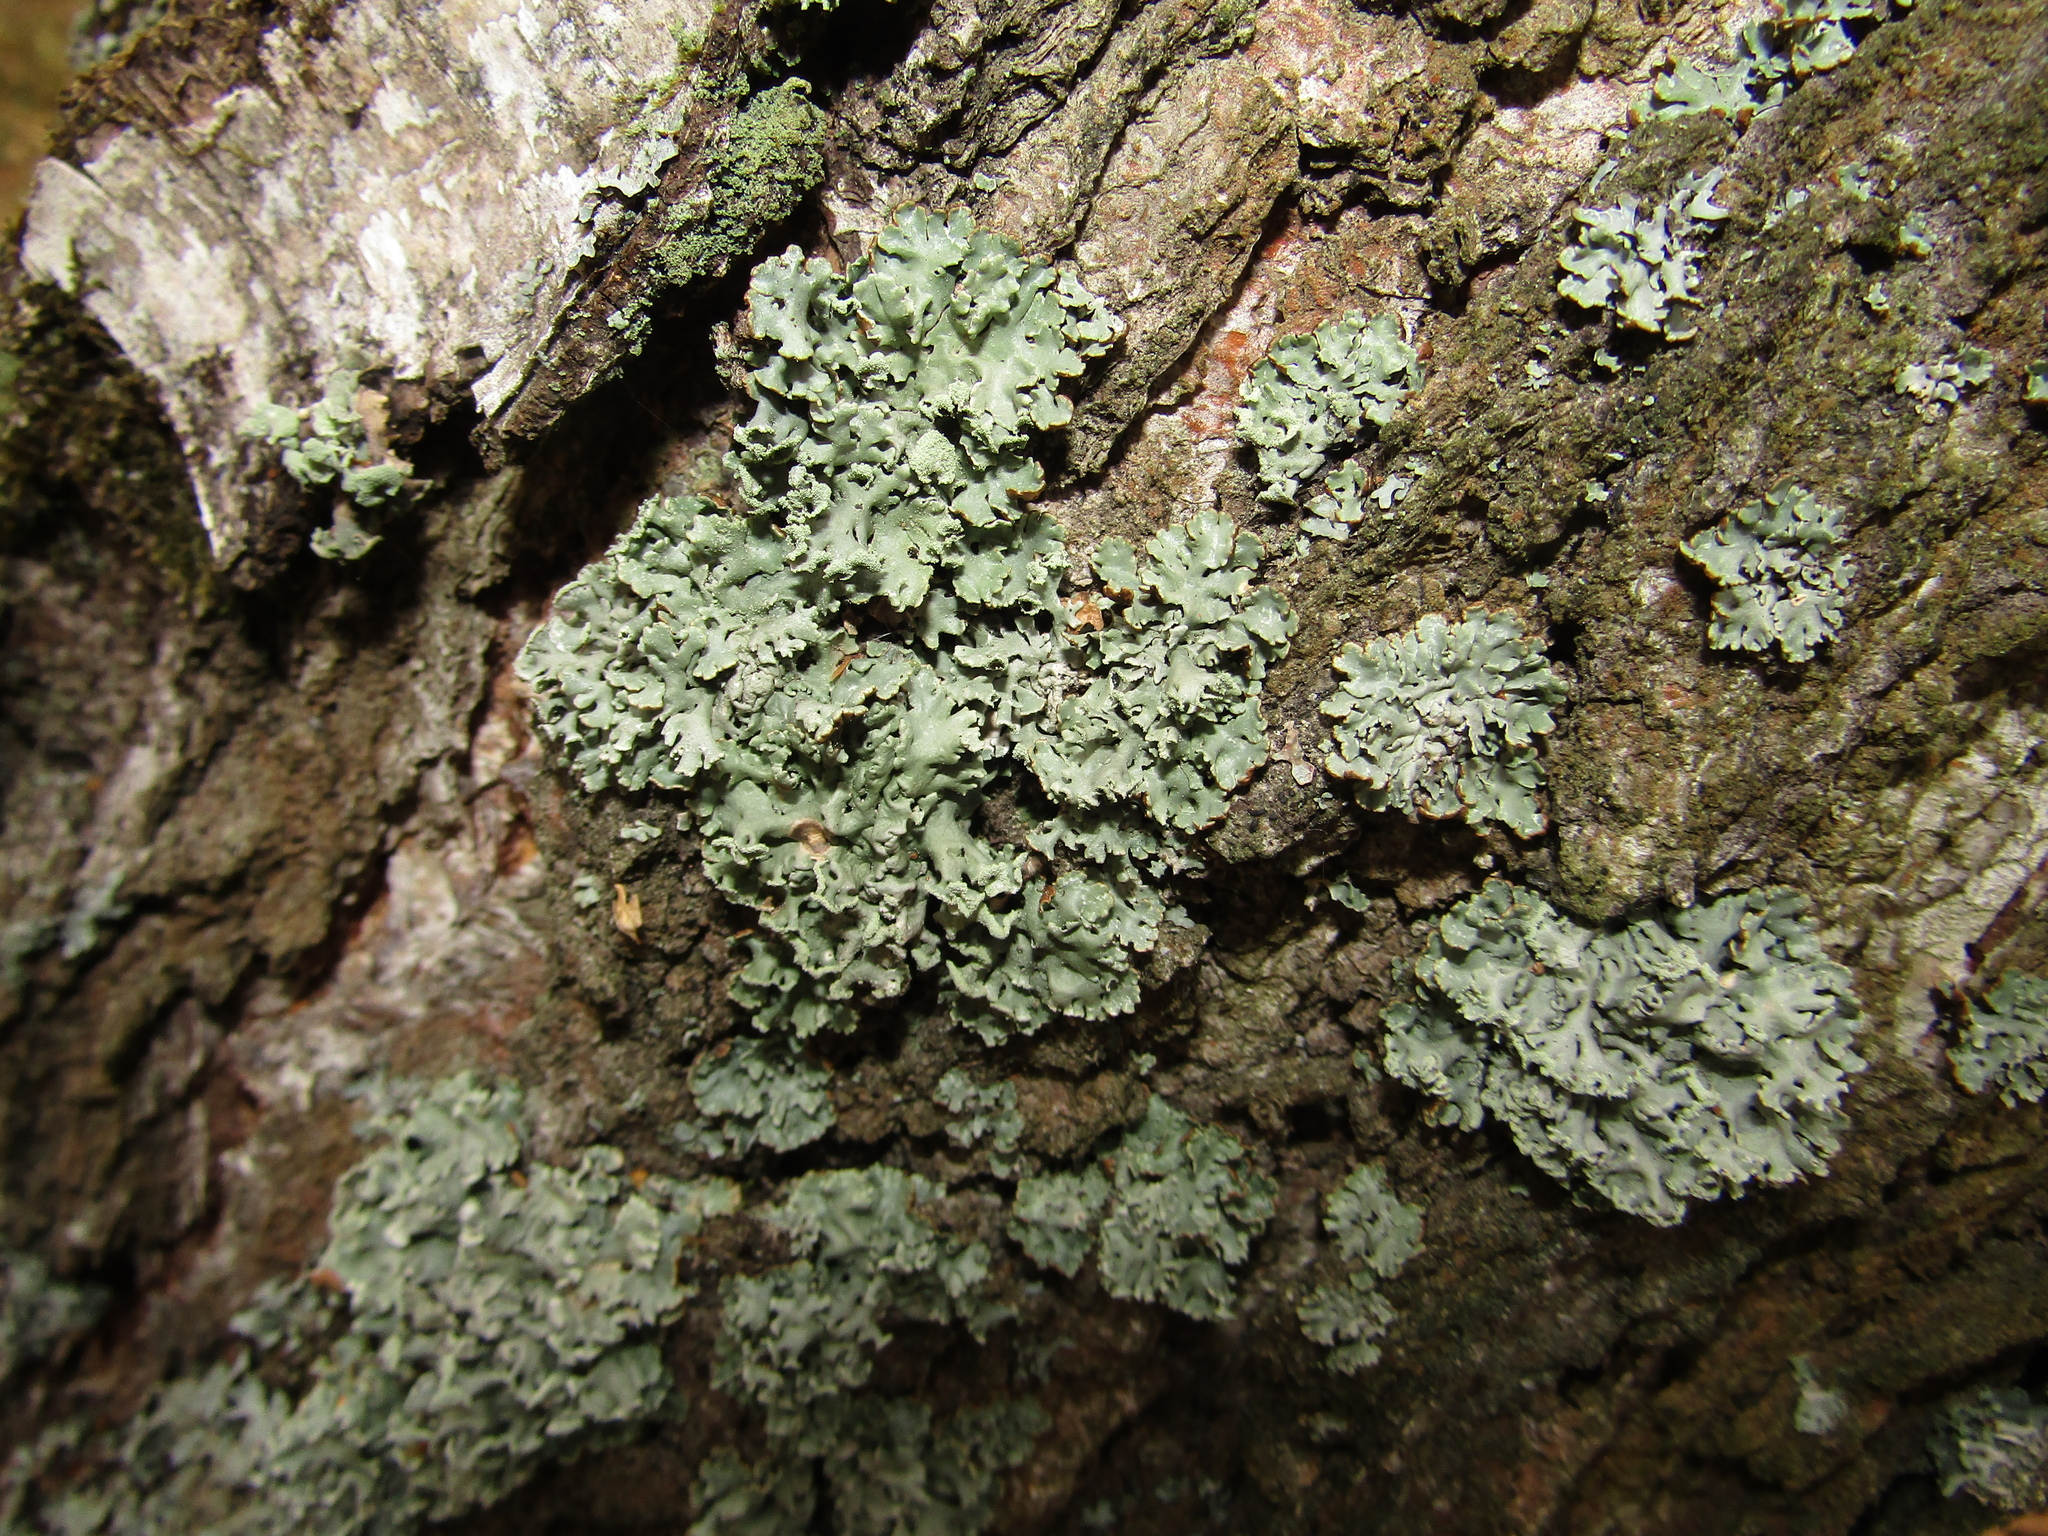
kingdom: Fungi
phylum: Ascomycota
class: Lecanoromycetes
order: Lecanorales
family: Parmeliaceae
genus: Hypogymnia
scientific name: Hypogymnia physodes
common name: Dark crottle
